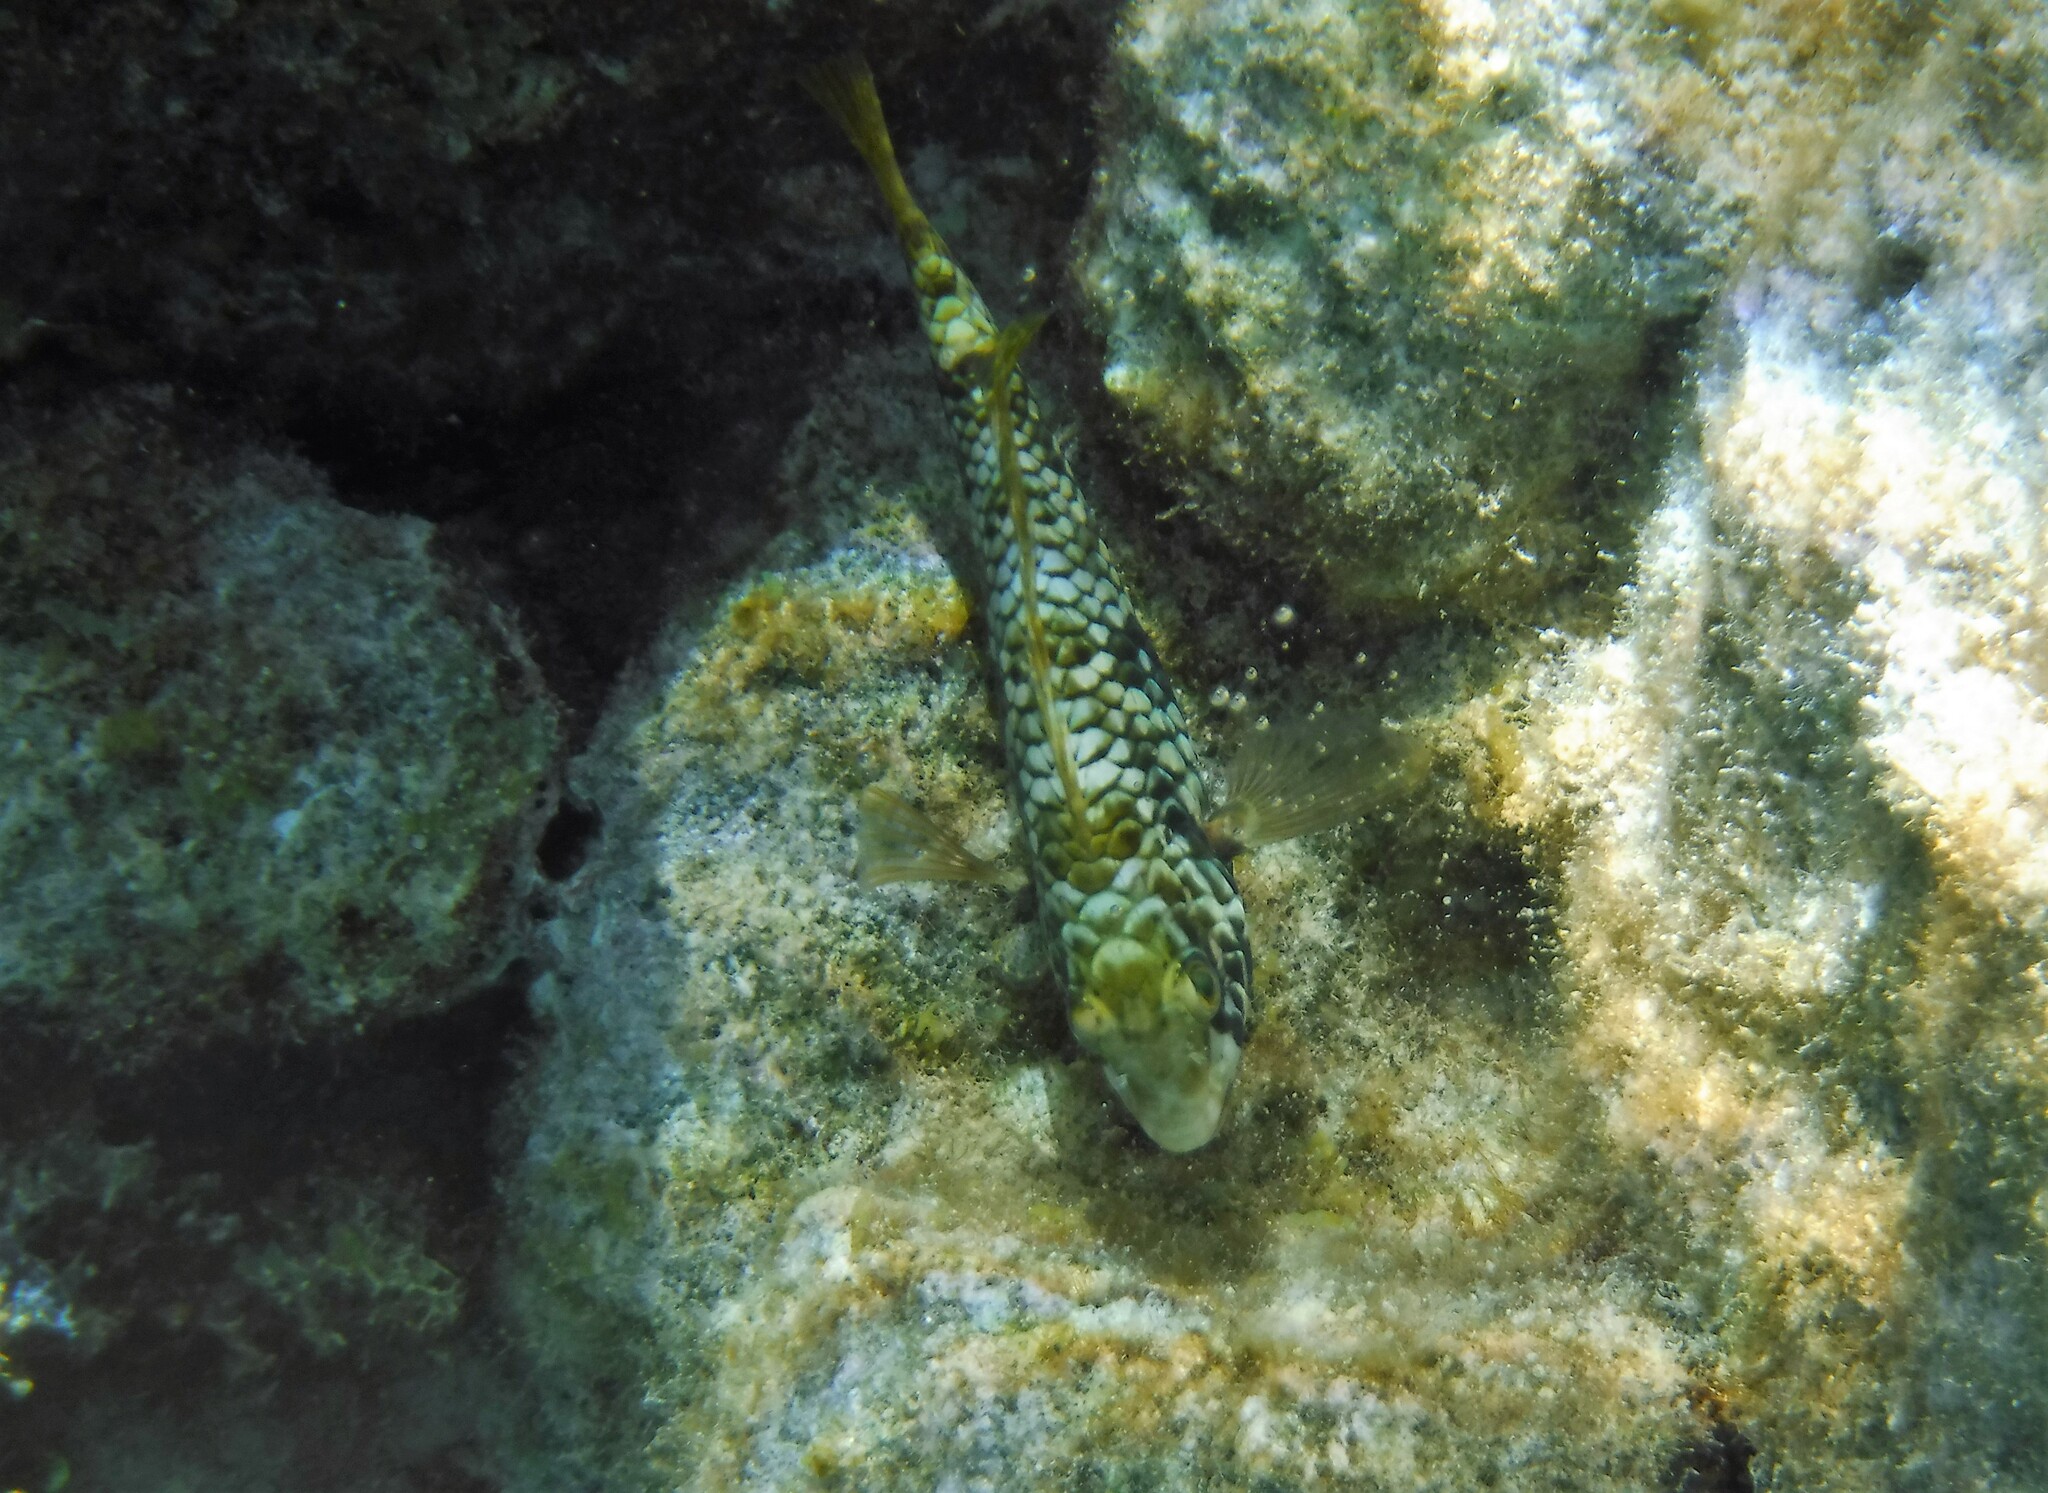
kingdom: Animalia
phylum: Chordata
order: Perciformes
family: Scaridae
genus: Sparisoma
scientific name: Sparisoma rubripinne
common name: Redfin parrotfish
